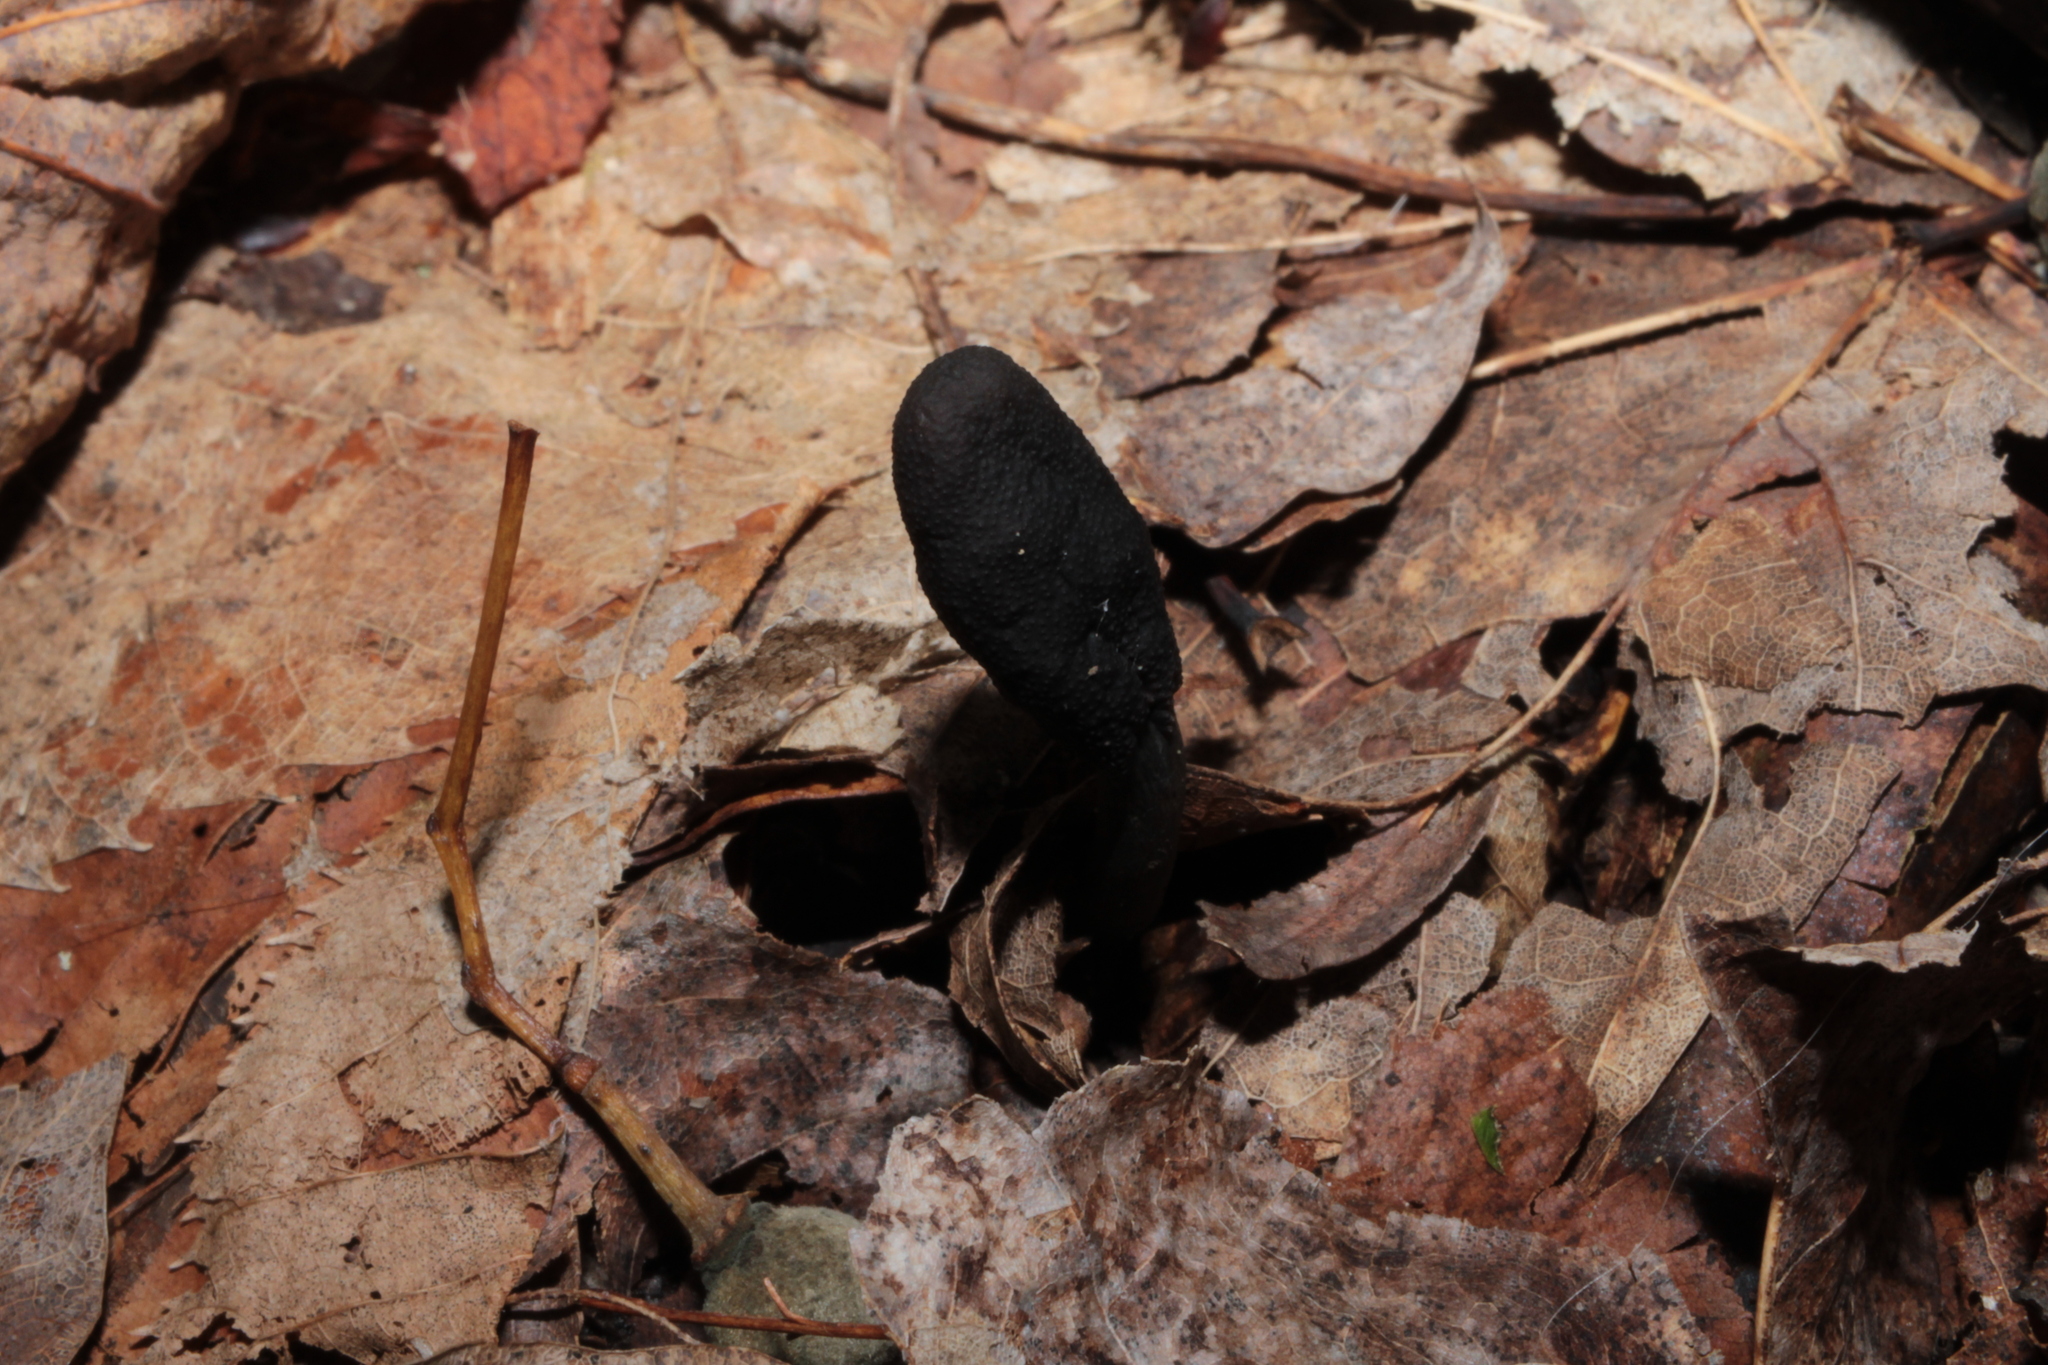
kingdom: Fungi
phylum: Ascomycota
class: Sordariomycetes
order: Hypocreales
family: Ophiocordycipitaceae
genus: Tolypocladium
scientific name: Tolypocladium ophioglossoides
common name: Snaketongue truffleclub
